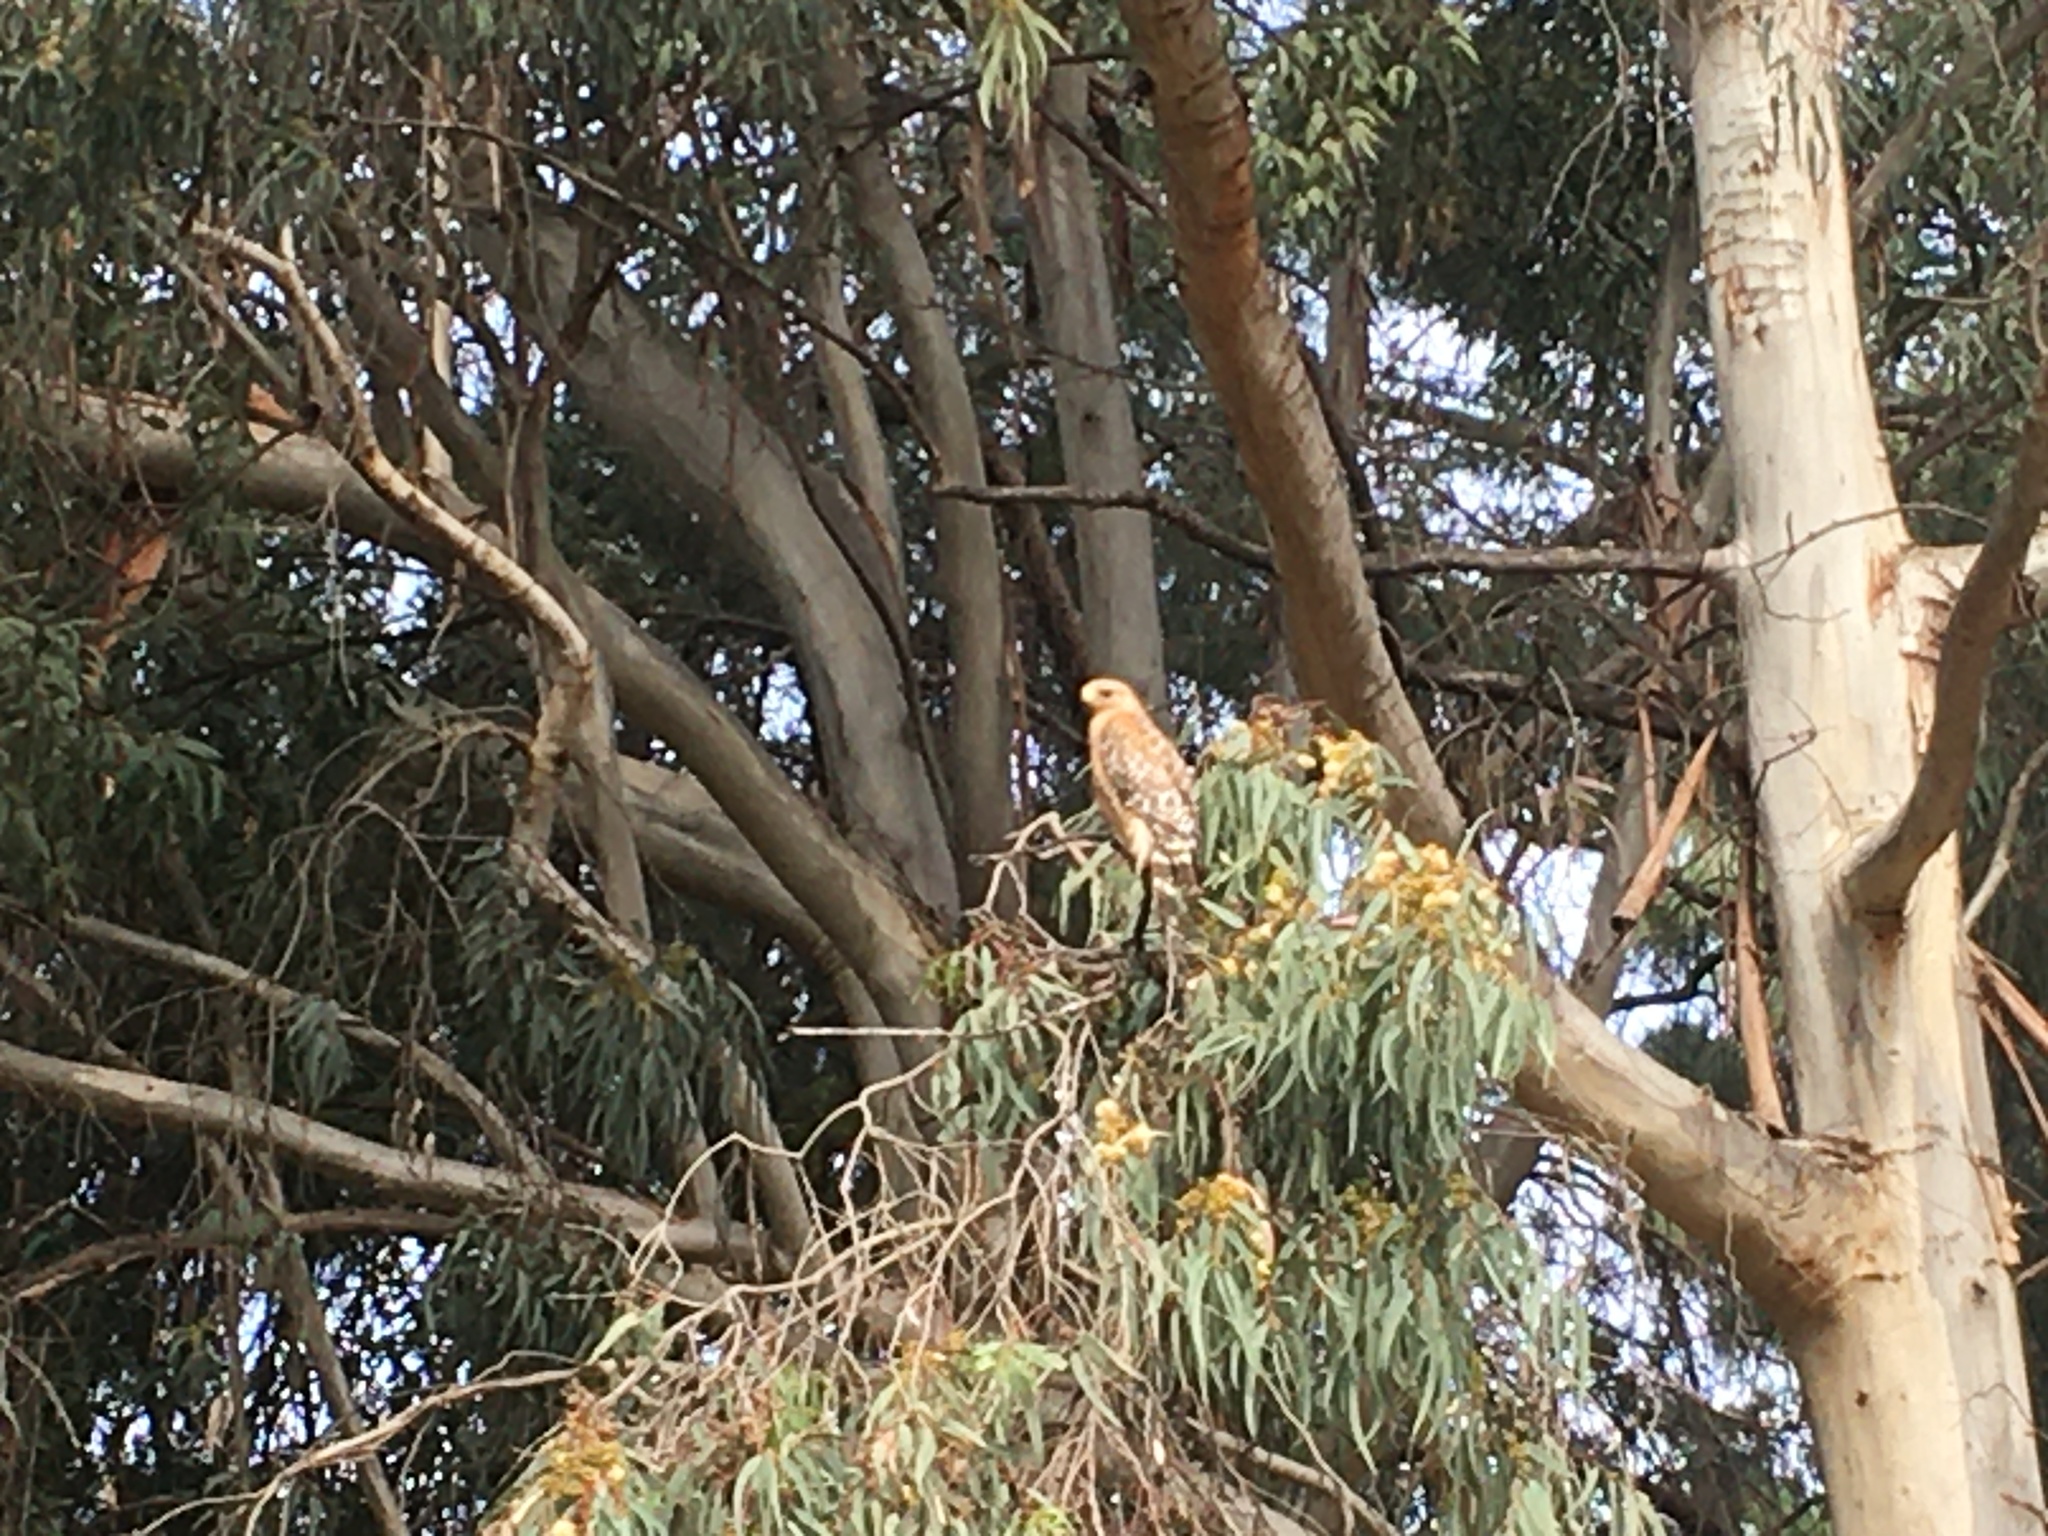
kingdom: Animalia
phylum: Chordata
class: Aves
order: Accipitriformes
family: Accipitridae
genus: Buteo
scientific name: Buteo lineatus
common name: Red-shouldered hawk
